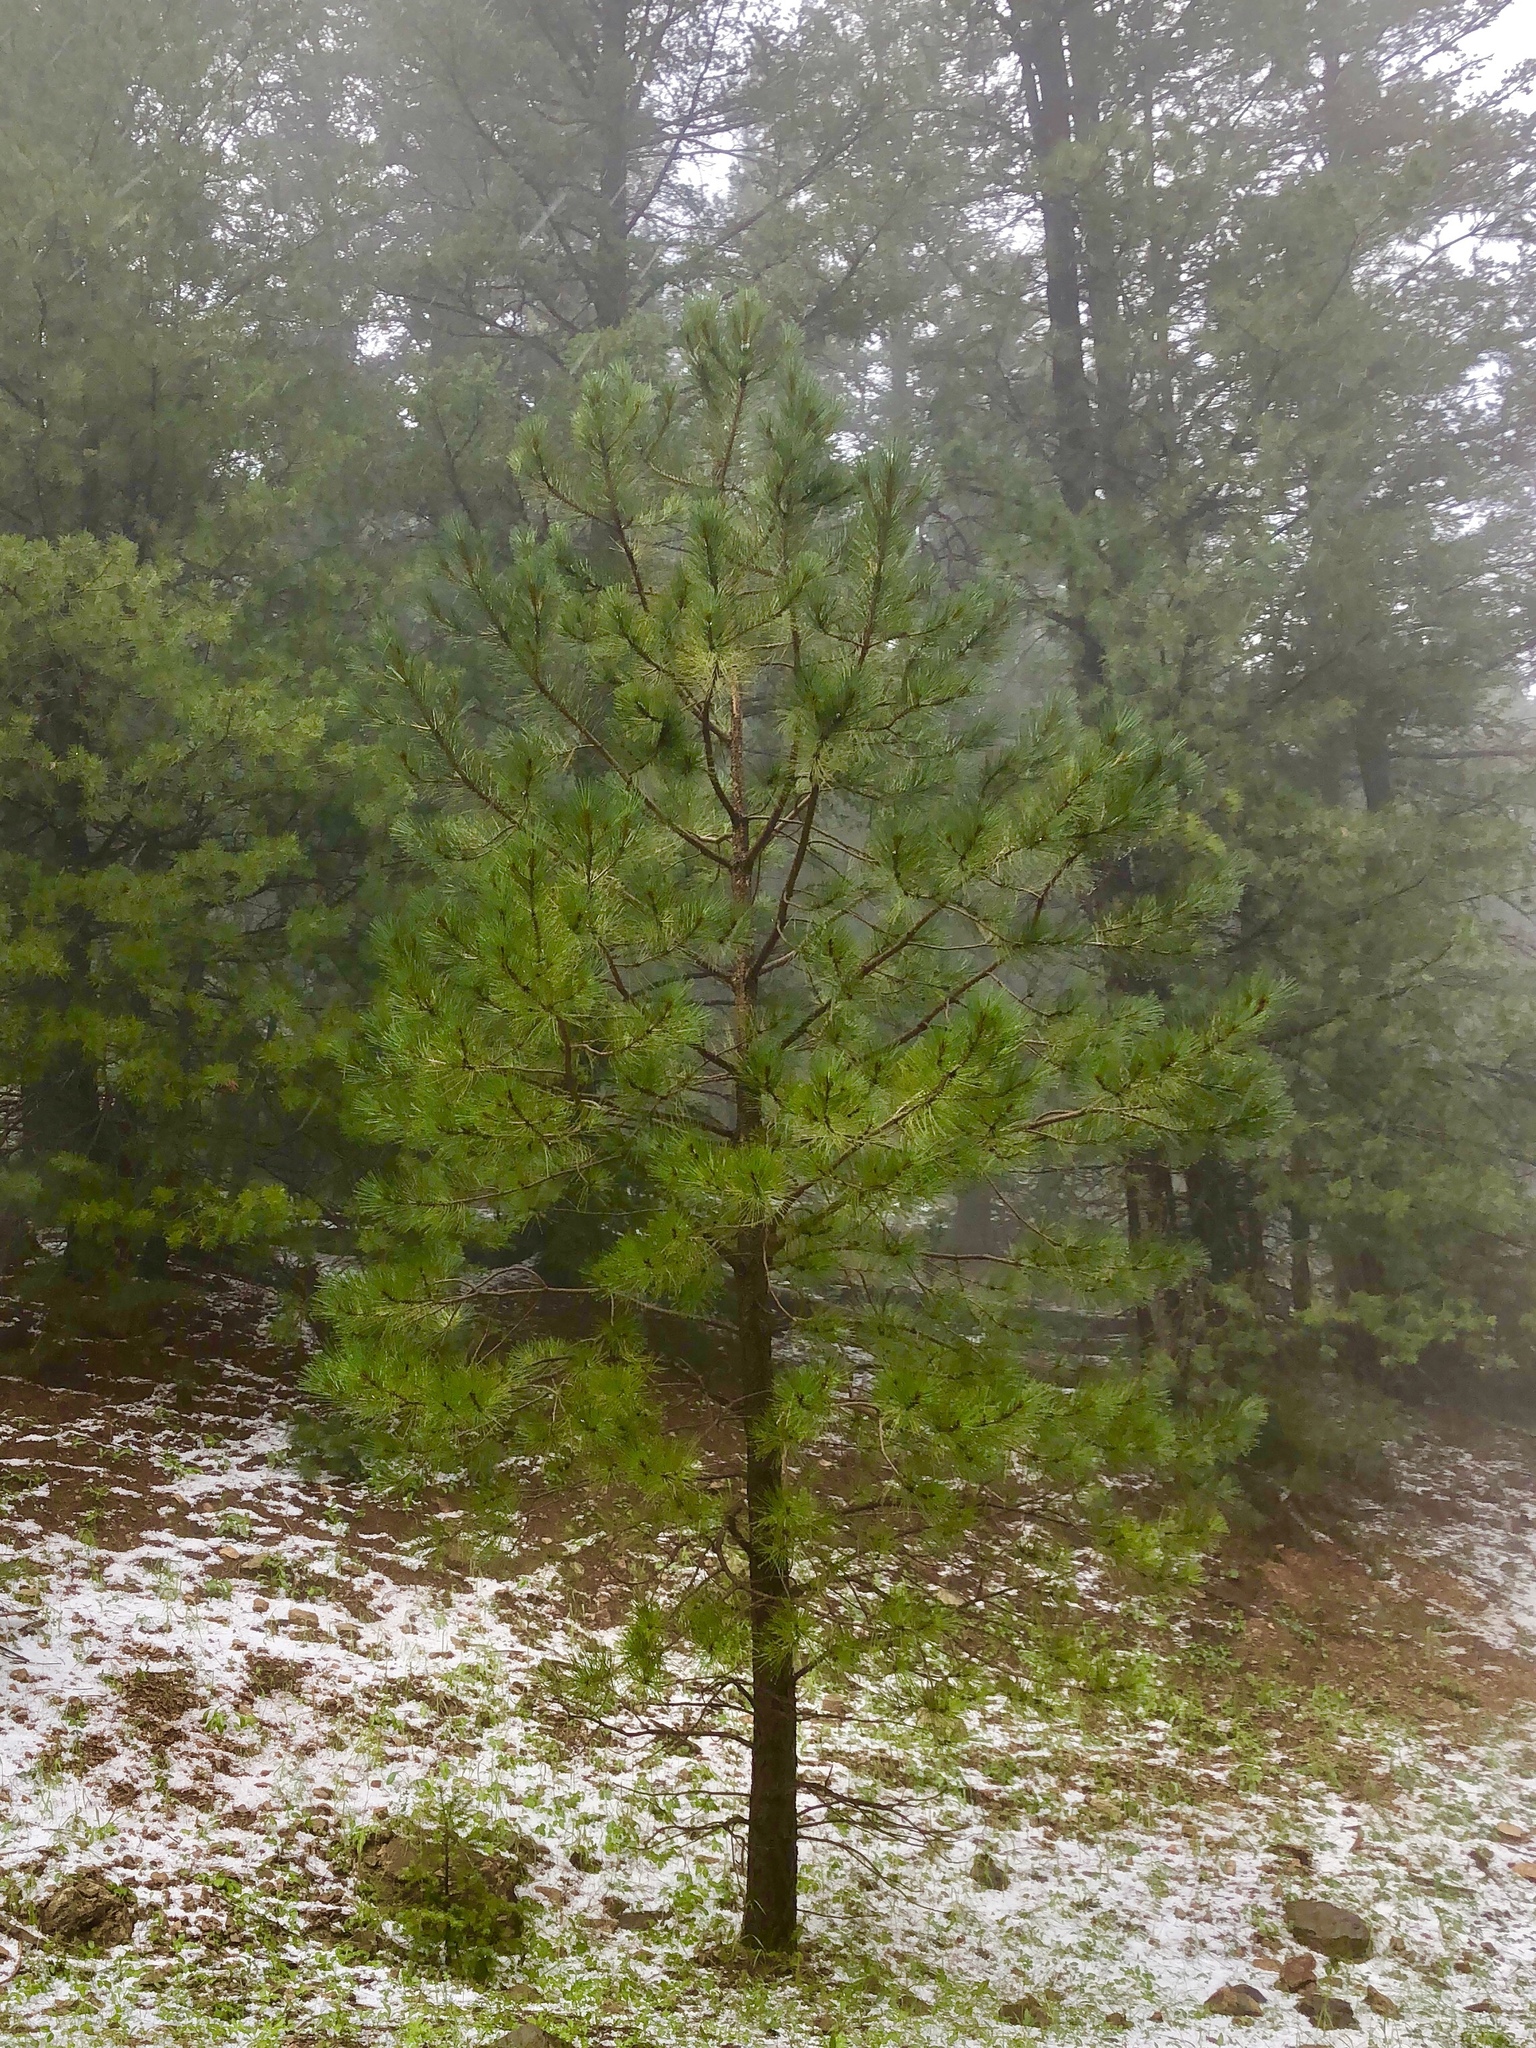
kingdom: Plantae
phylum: Tracheophyta
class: Pinopsida
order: Pinales
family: Pinaceae
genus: Pinus
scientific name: Pinus strobiformis
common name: Southwestern white pine
